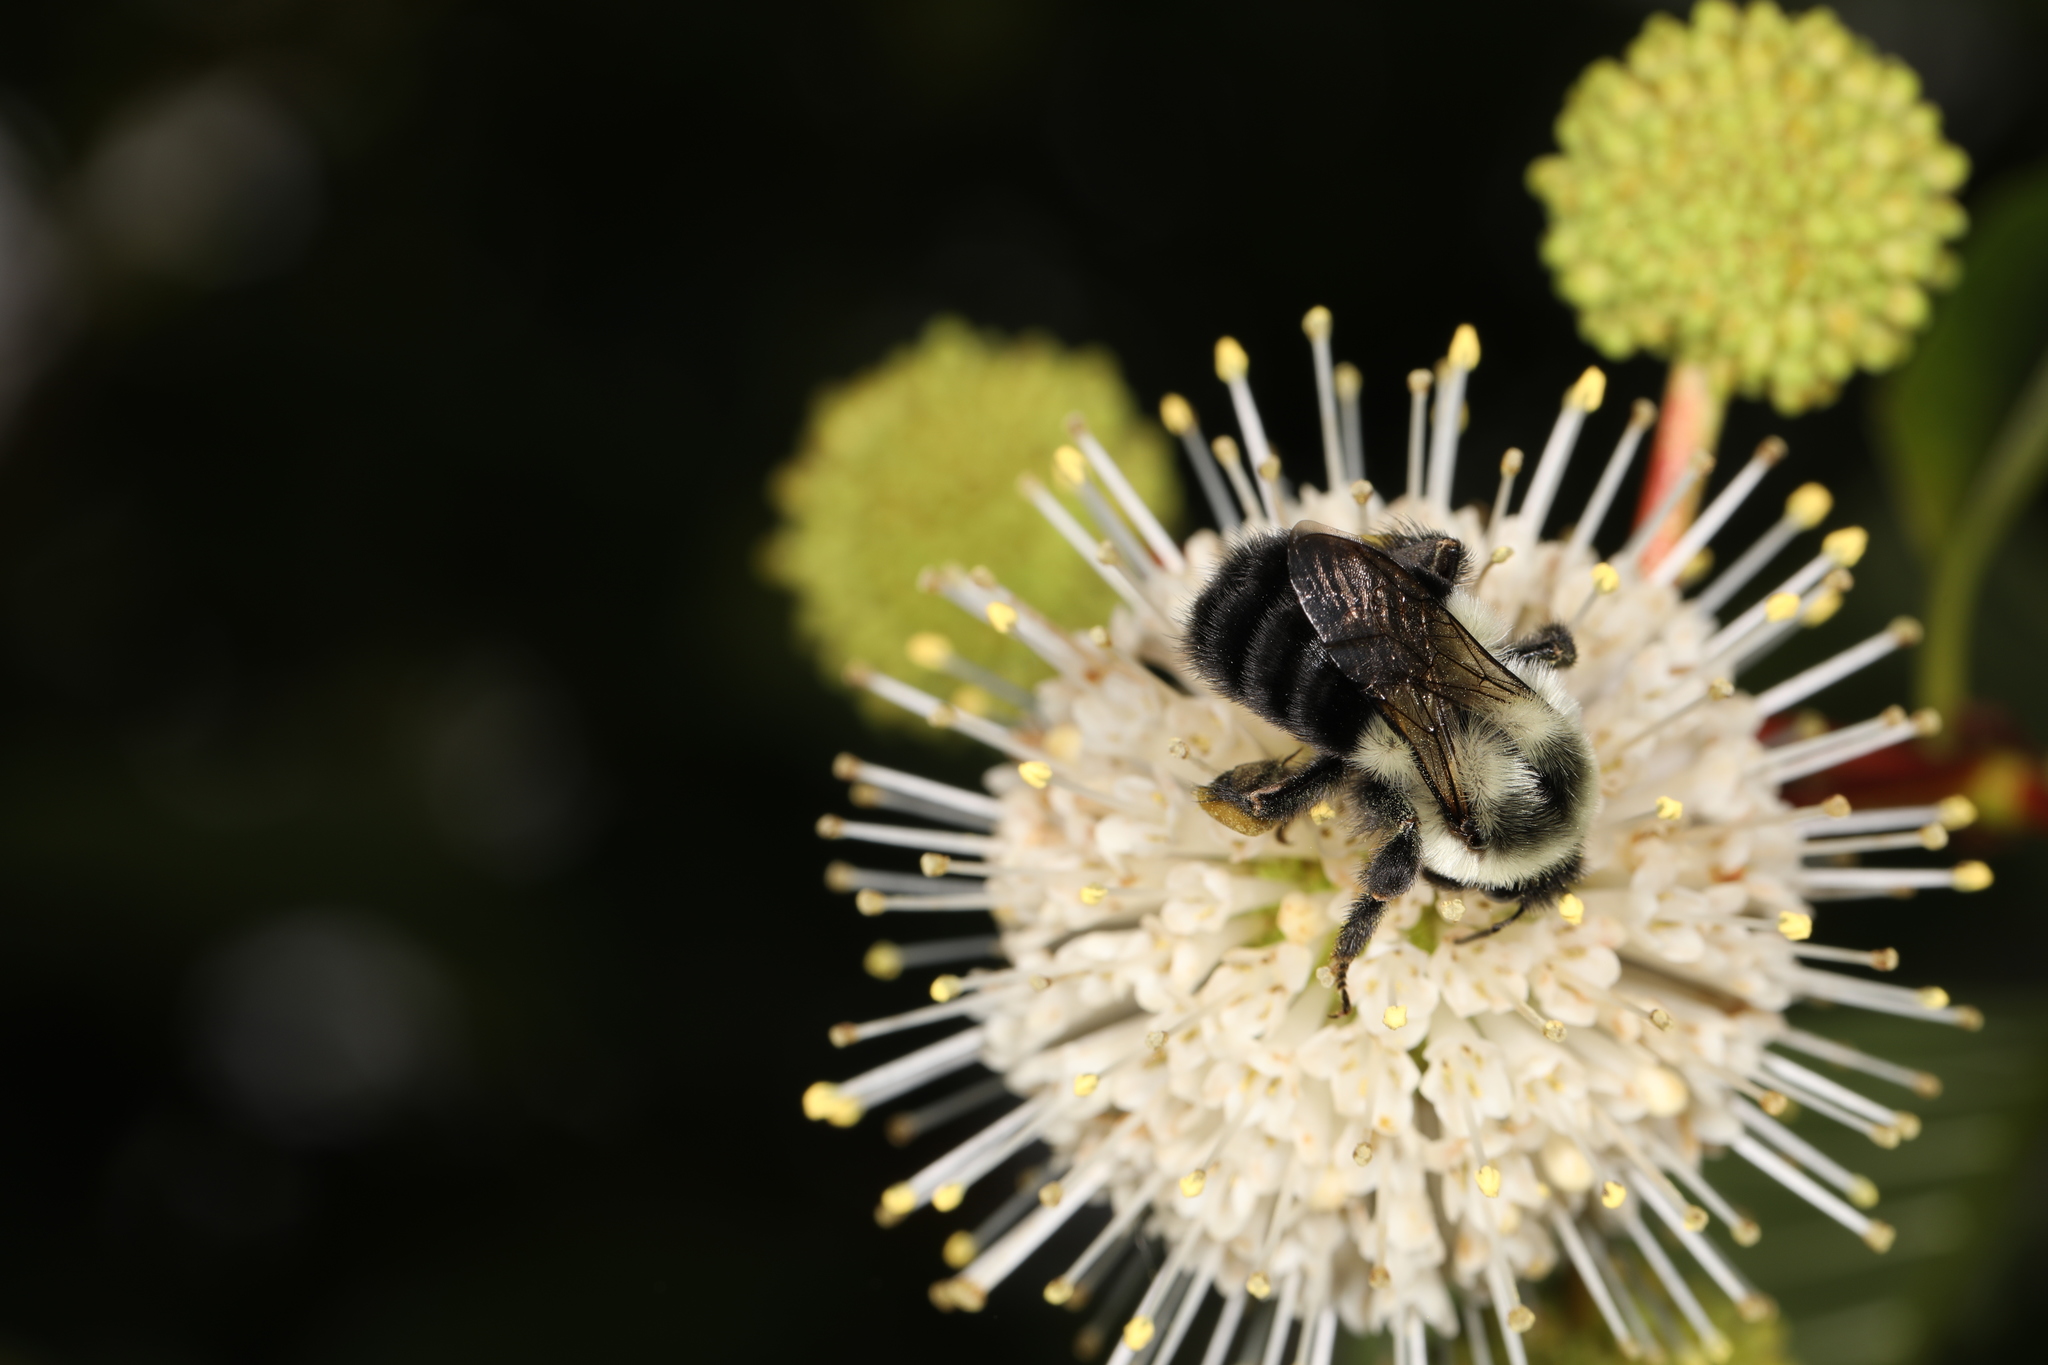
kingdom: Animalia
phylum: Arthropoda
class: Insecta
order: Hymenoptera
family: Apidae
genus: Bombus
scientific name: Bombus impatiens
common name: Common eastern bumble bee
